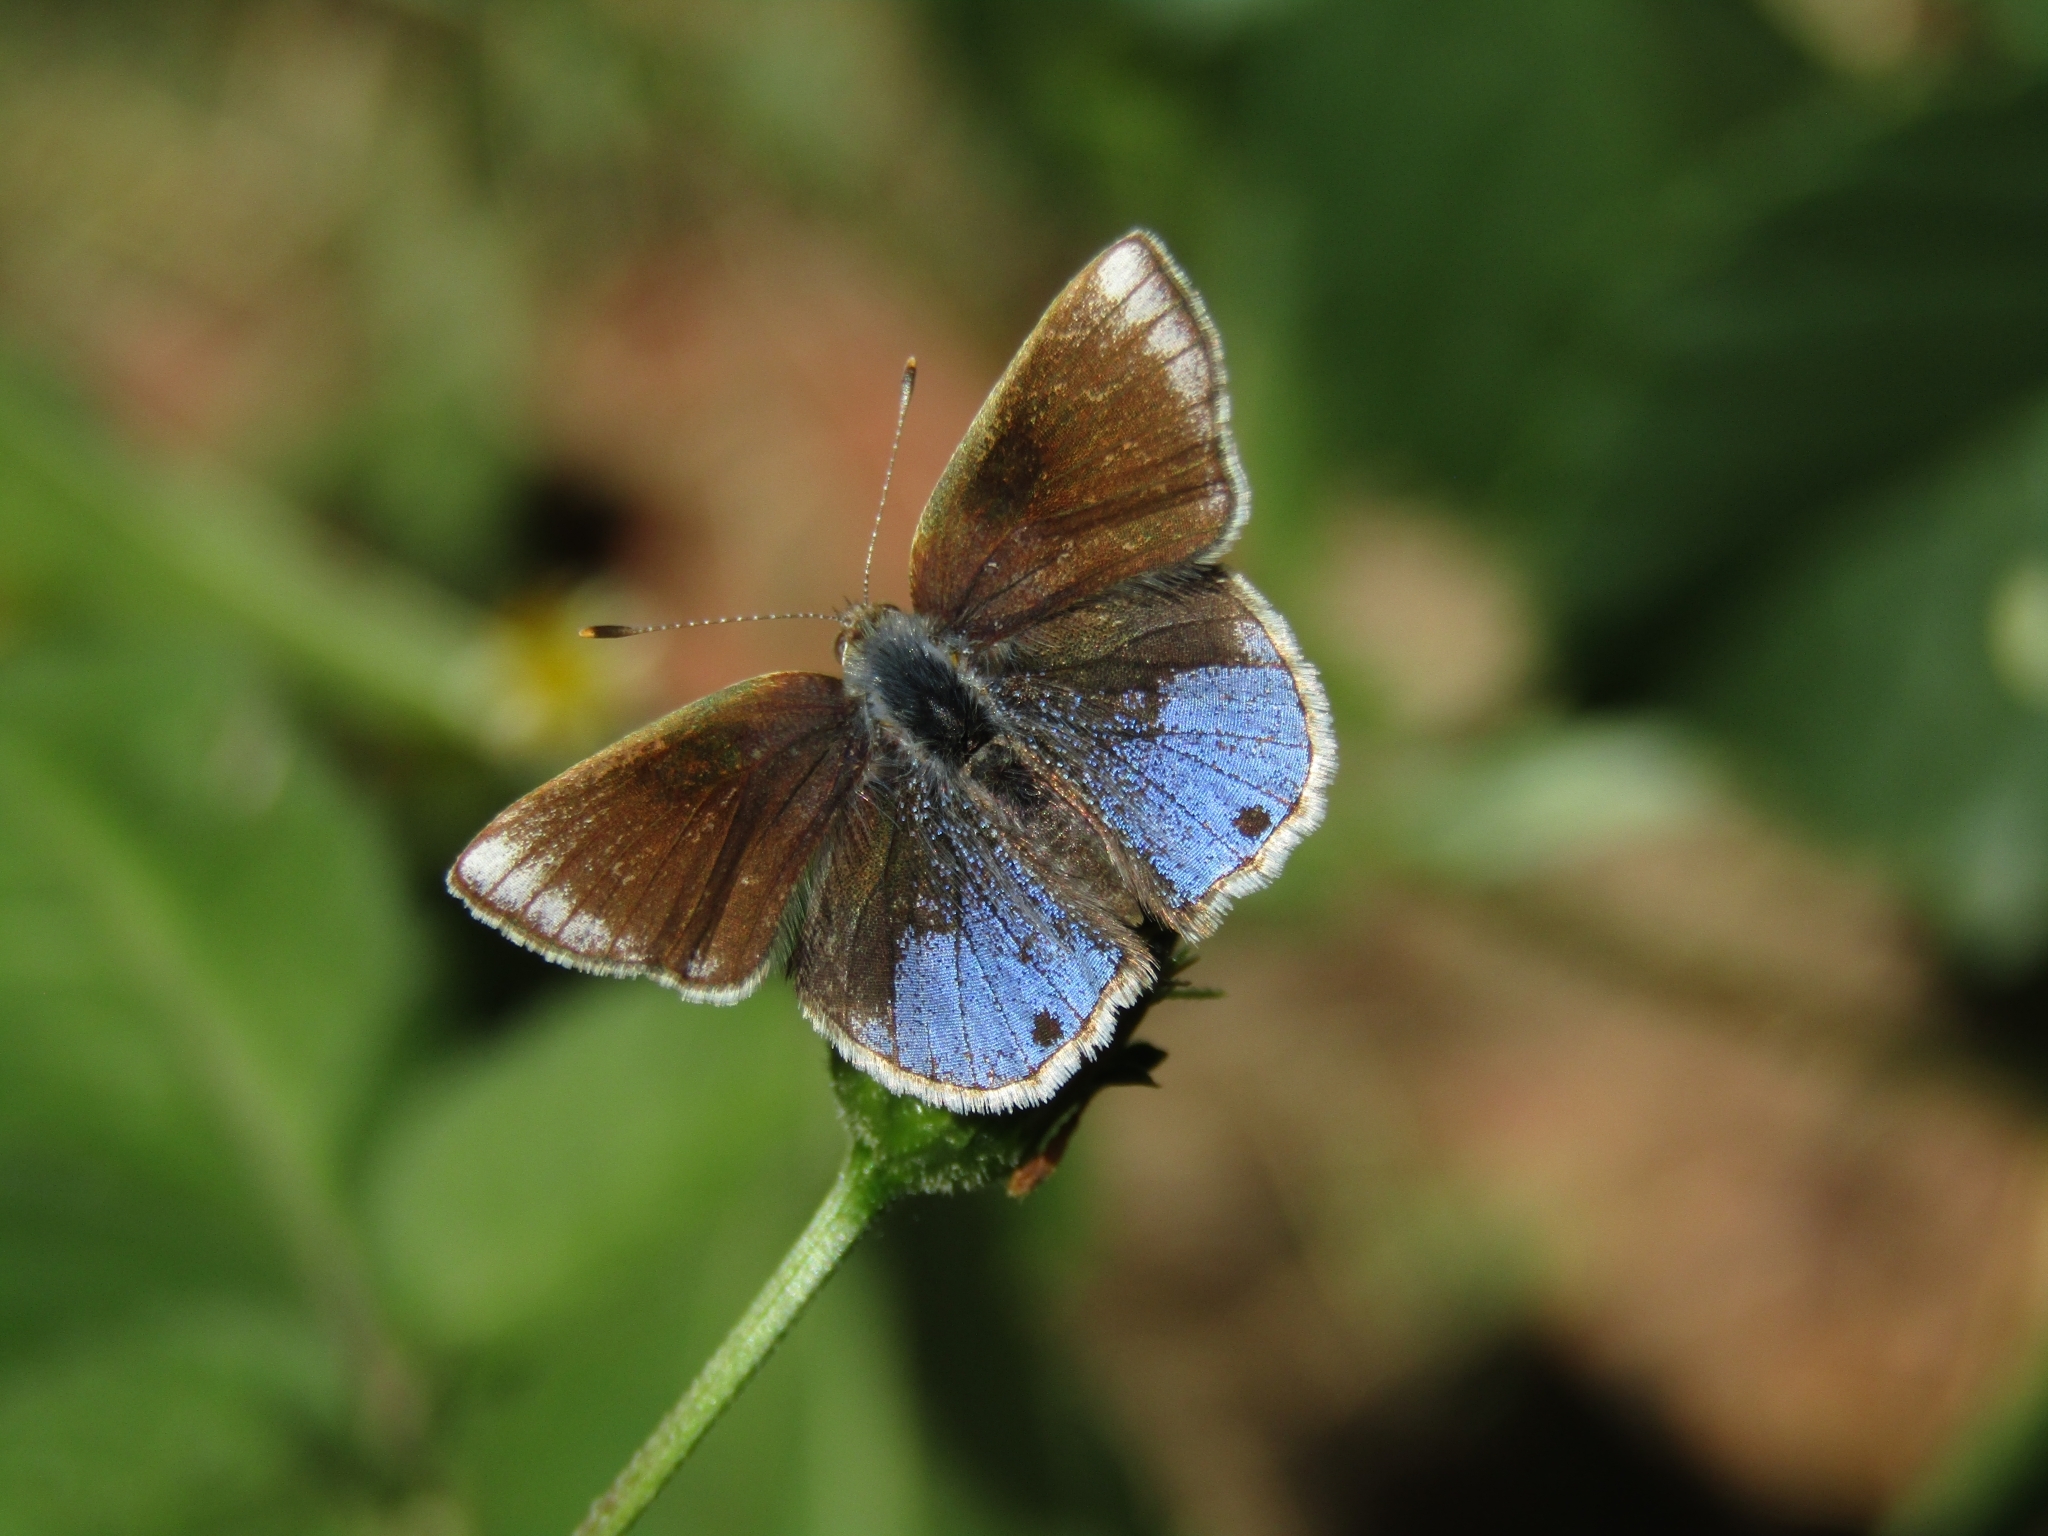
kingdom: Animalia
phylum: Arthropoda
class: Insecta
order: Lepidoptera
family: Lycaenidae
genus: Strymon
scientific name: Strymon bazochii
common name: Lantana scrub-hairstreak
